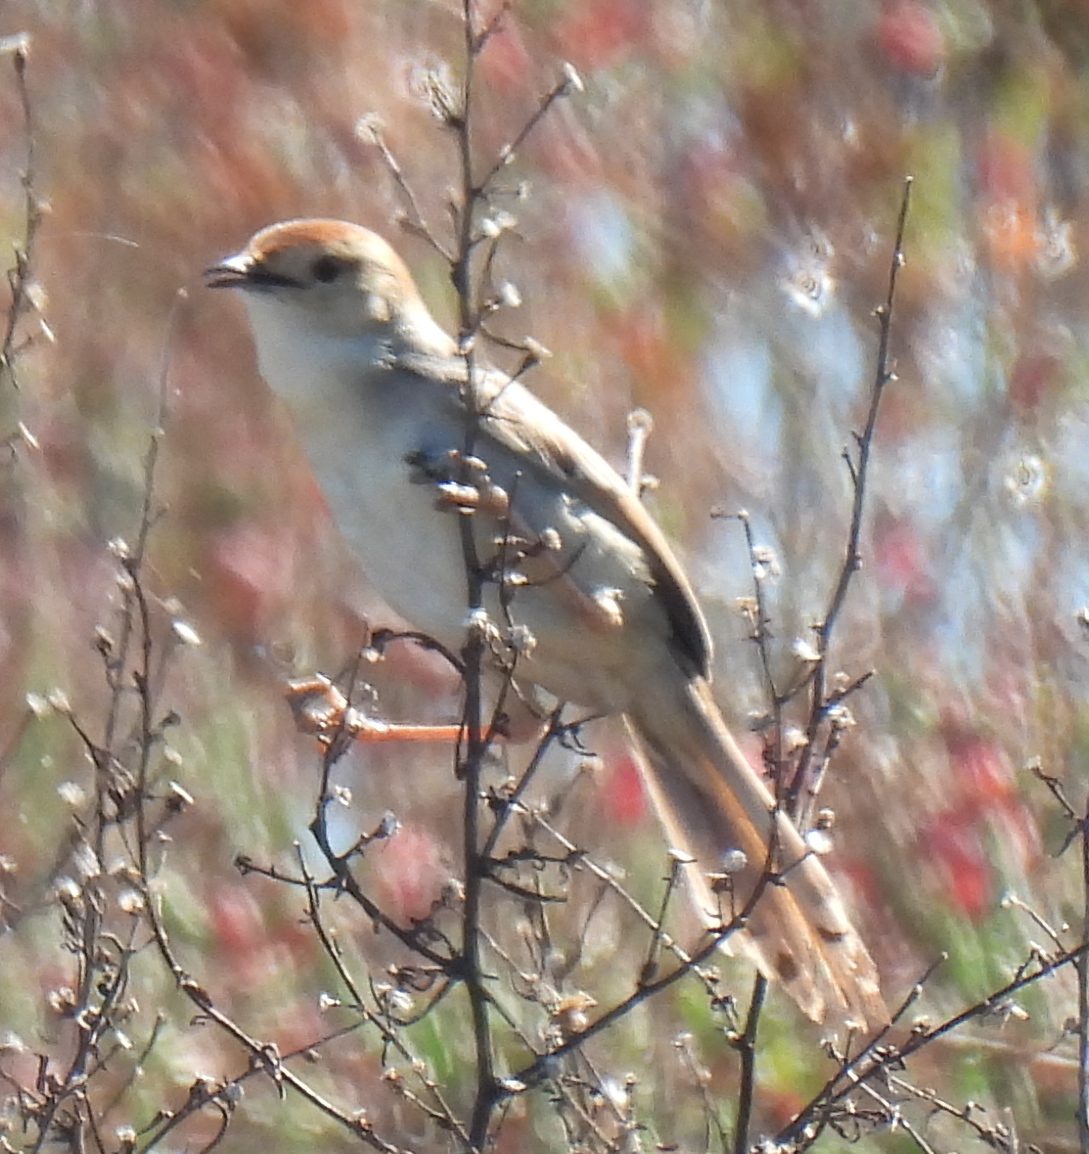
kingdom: Animalia
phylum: Chordata
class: Aves
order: Passeriformes
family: Cisticolidae
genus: Cisticola
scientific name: Cisticola tinniens
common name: Levaillant's cisticola
